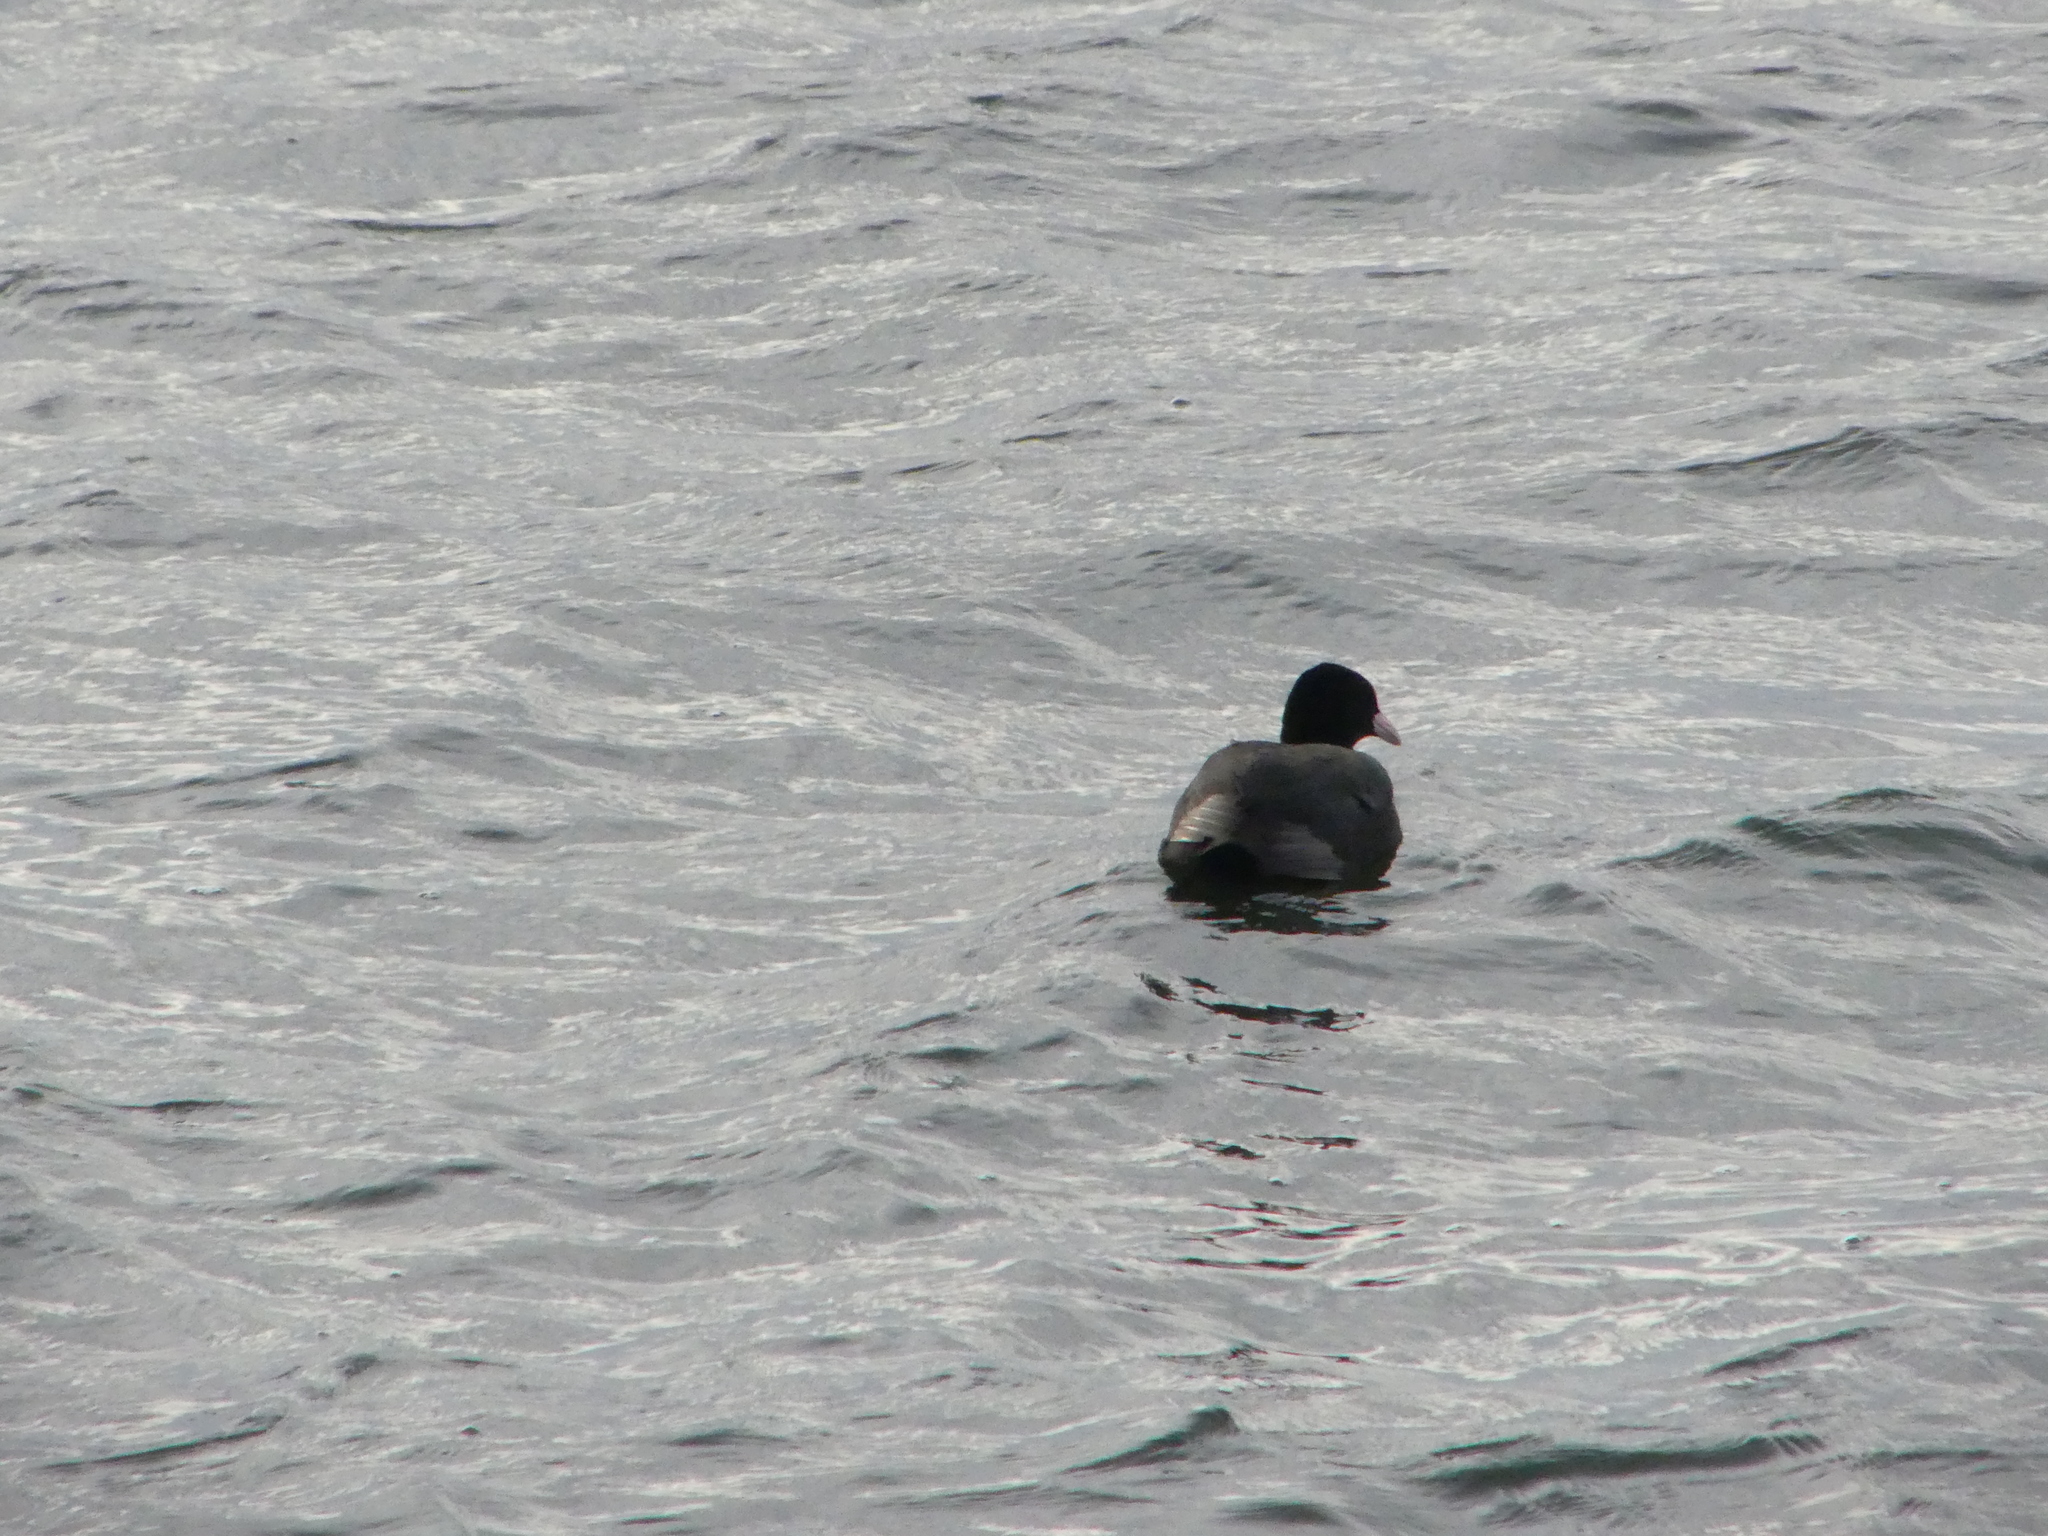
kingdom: Animalia
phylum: Chordata
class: Aves
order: Gruiformes
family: Rallidae
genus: Fulica
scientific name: Fulica atra
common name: Eurasian coot
